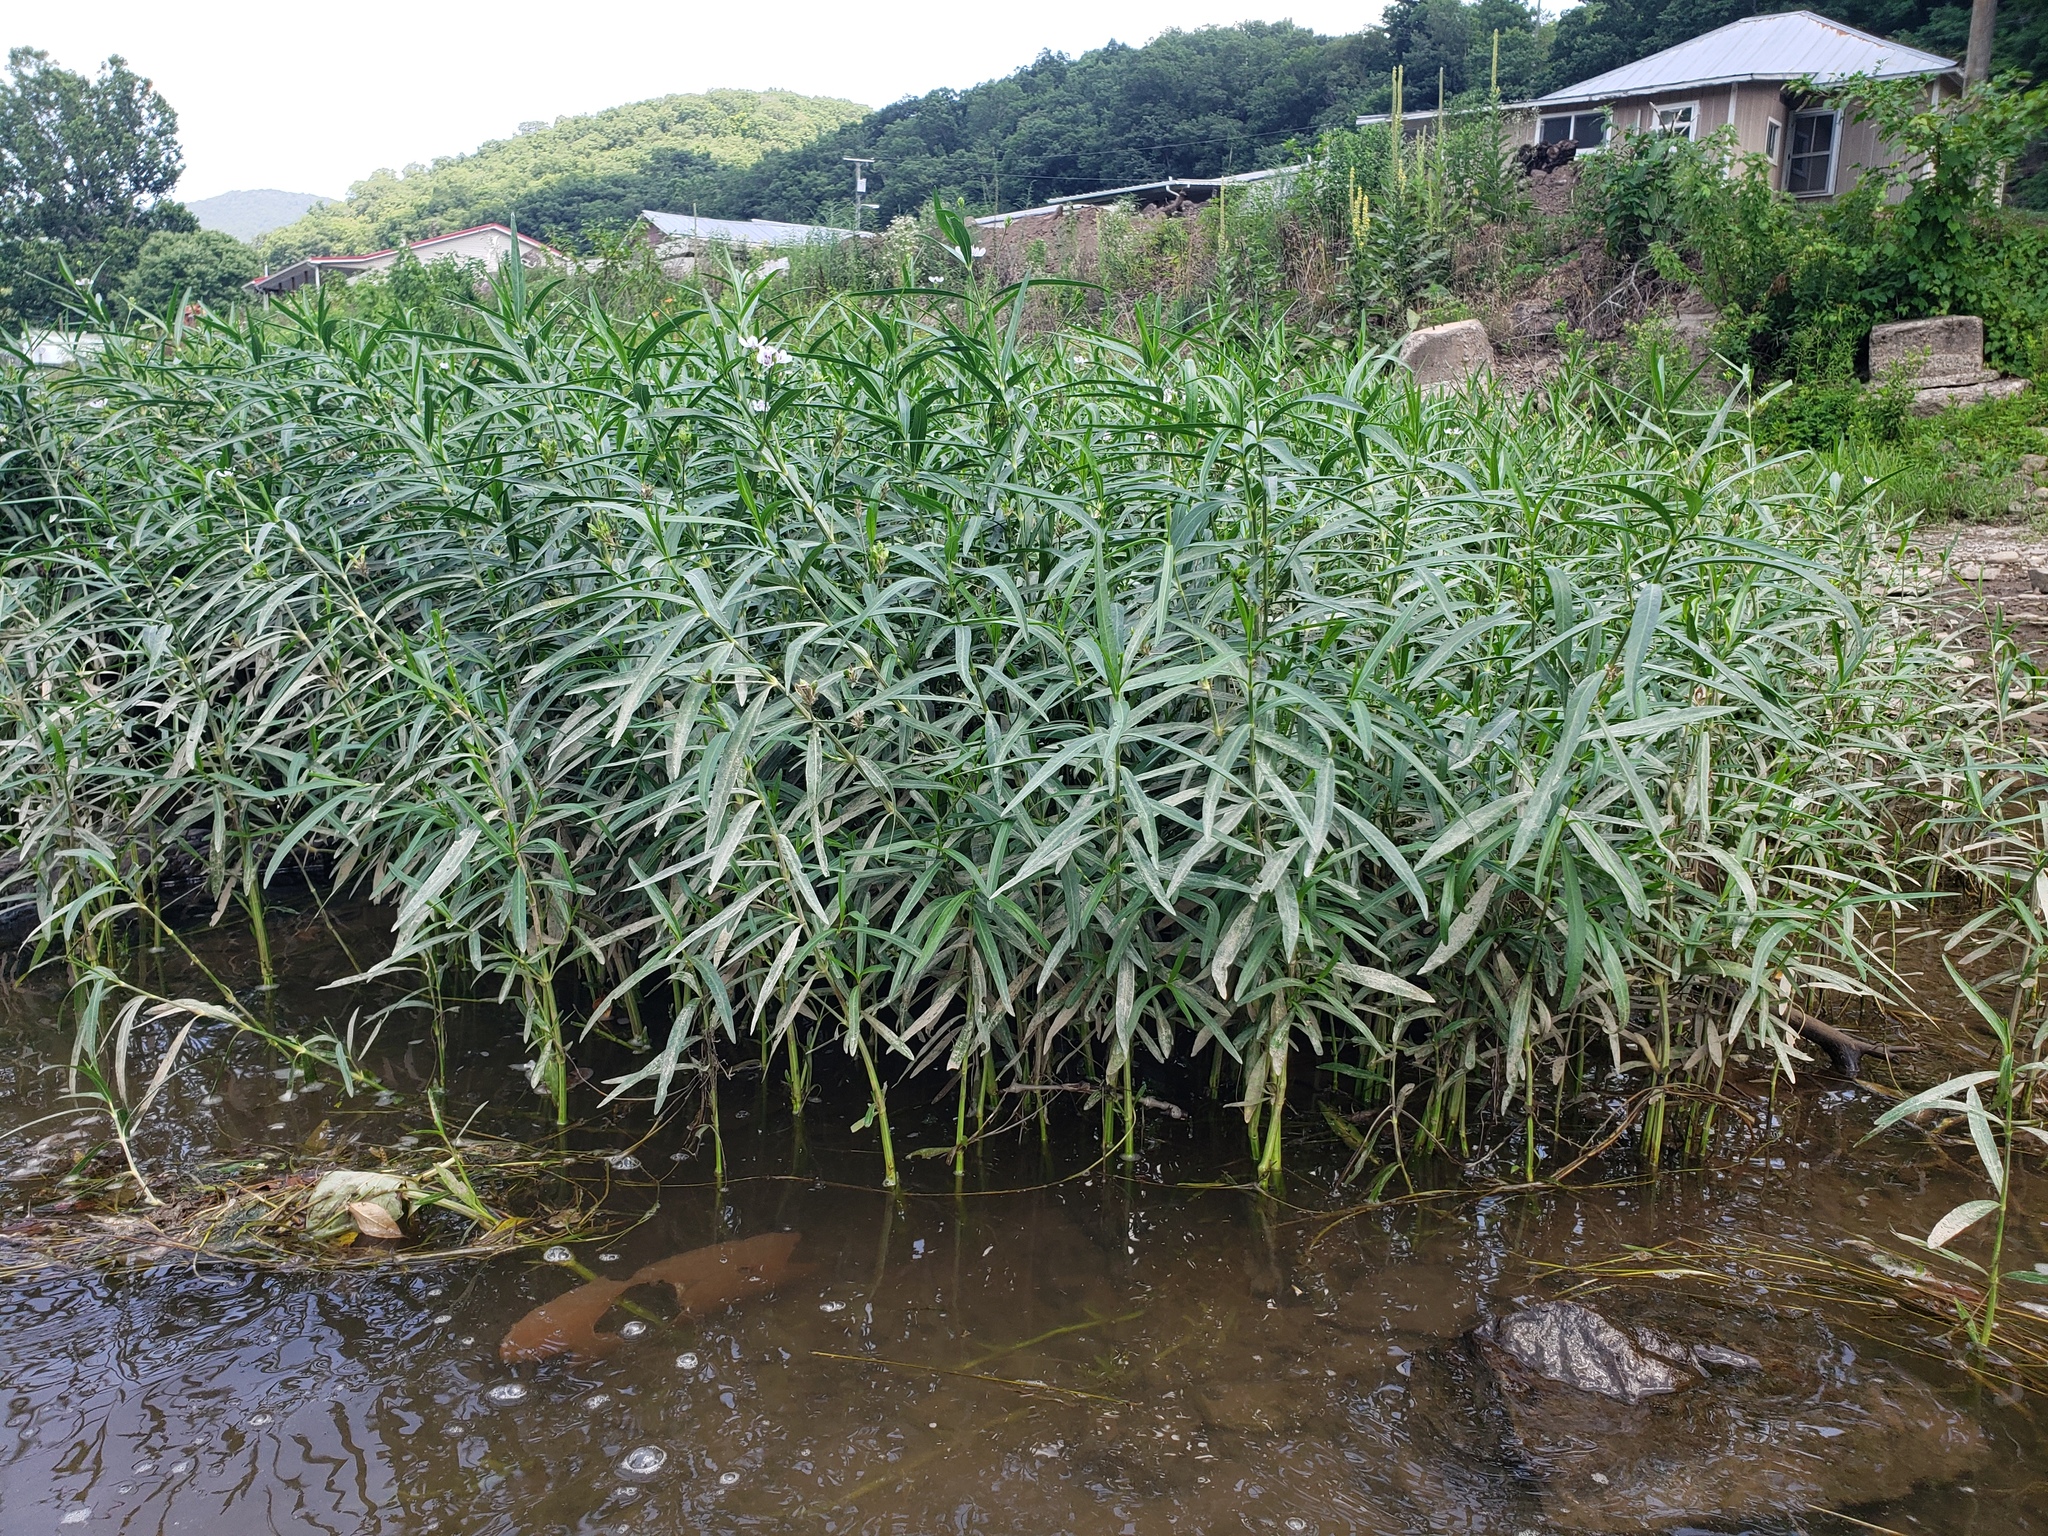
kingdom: Plantae
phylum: Tracheophyta
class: Magnoliopsida
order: Lamiales
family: Acanthaceae
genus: Dianthera
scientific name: Dianthera americana
